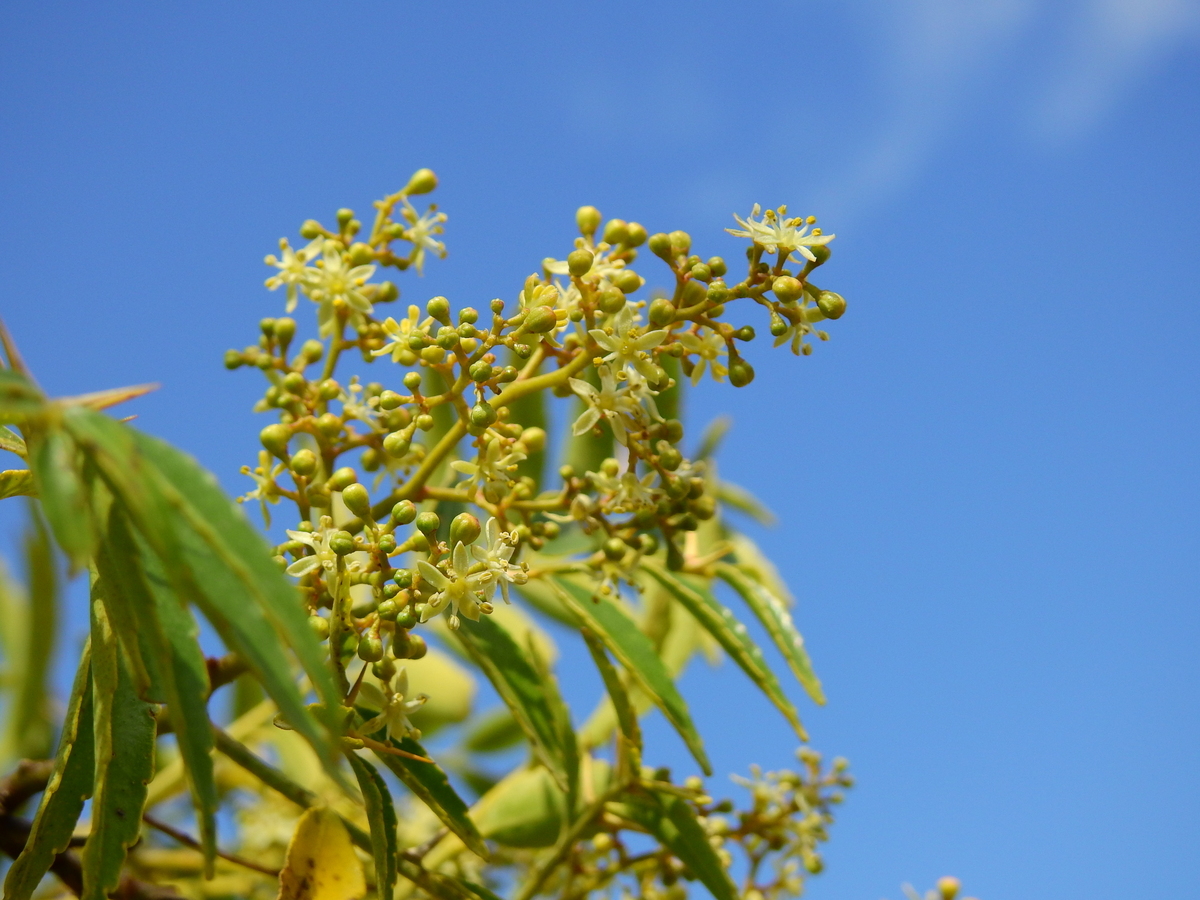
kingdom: Plantae
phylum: Tracheophyta
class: Magnoliopsida
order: Sapindales
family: Rutaceae
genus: Zanthoxylum
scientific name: Zanthoxylum coco
